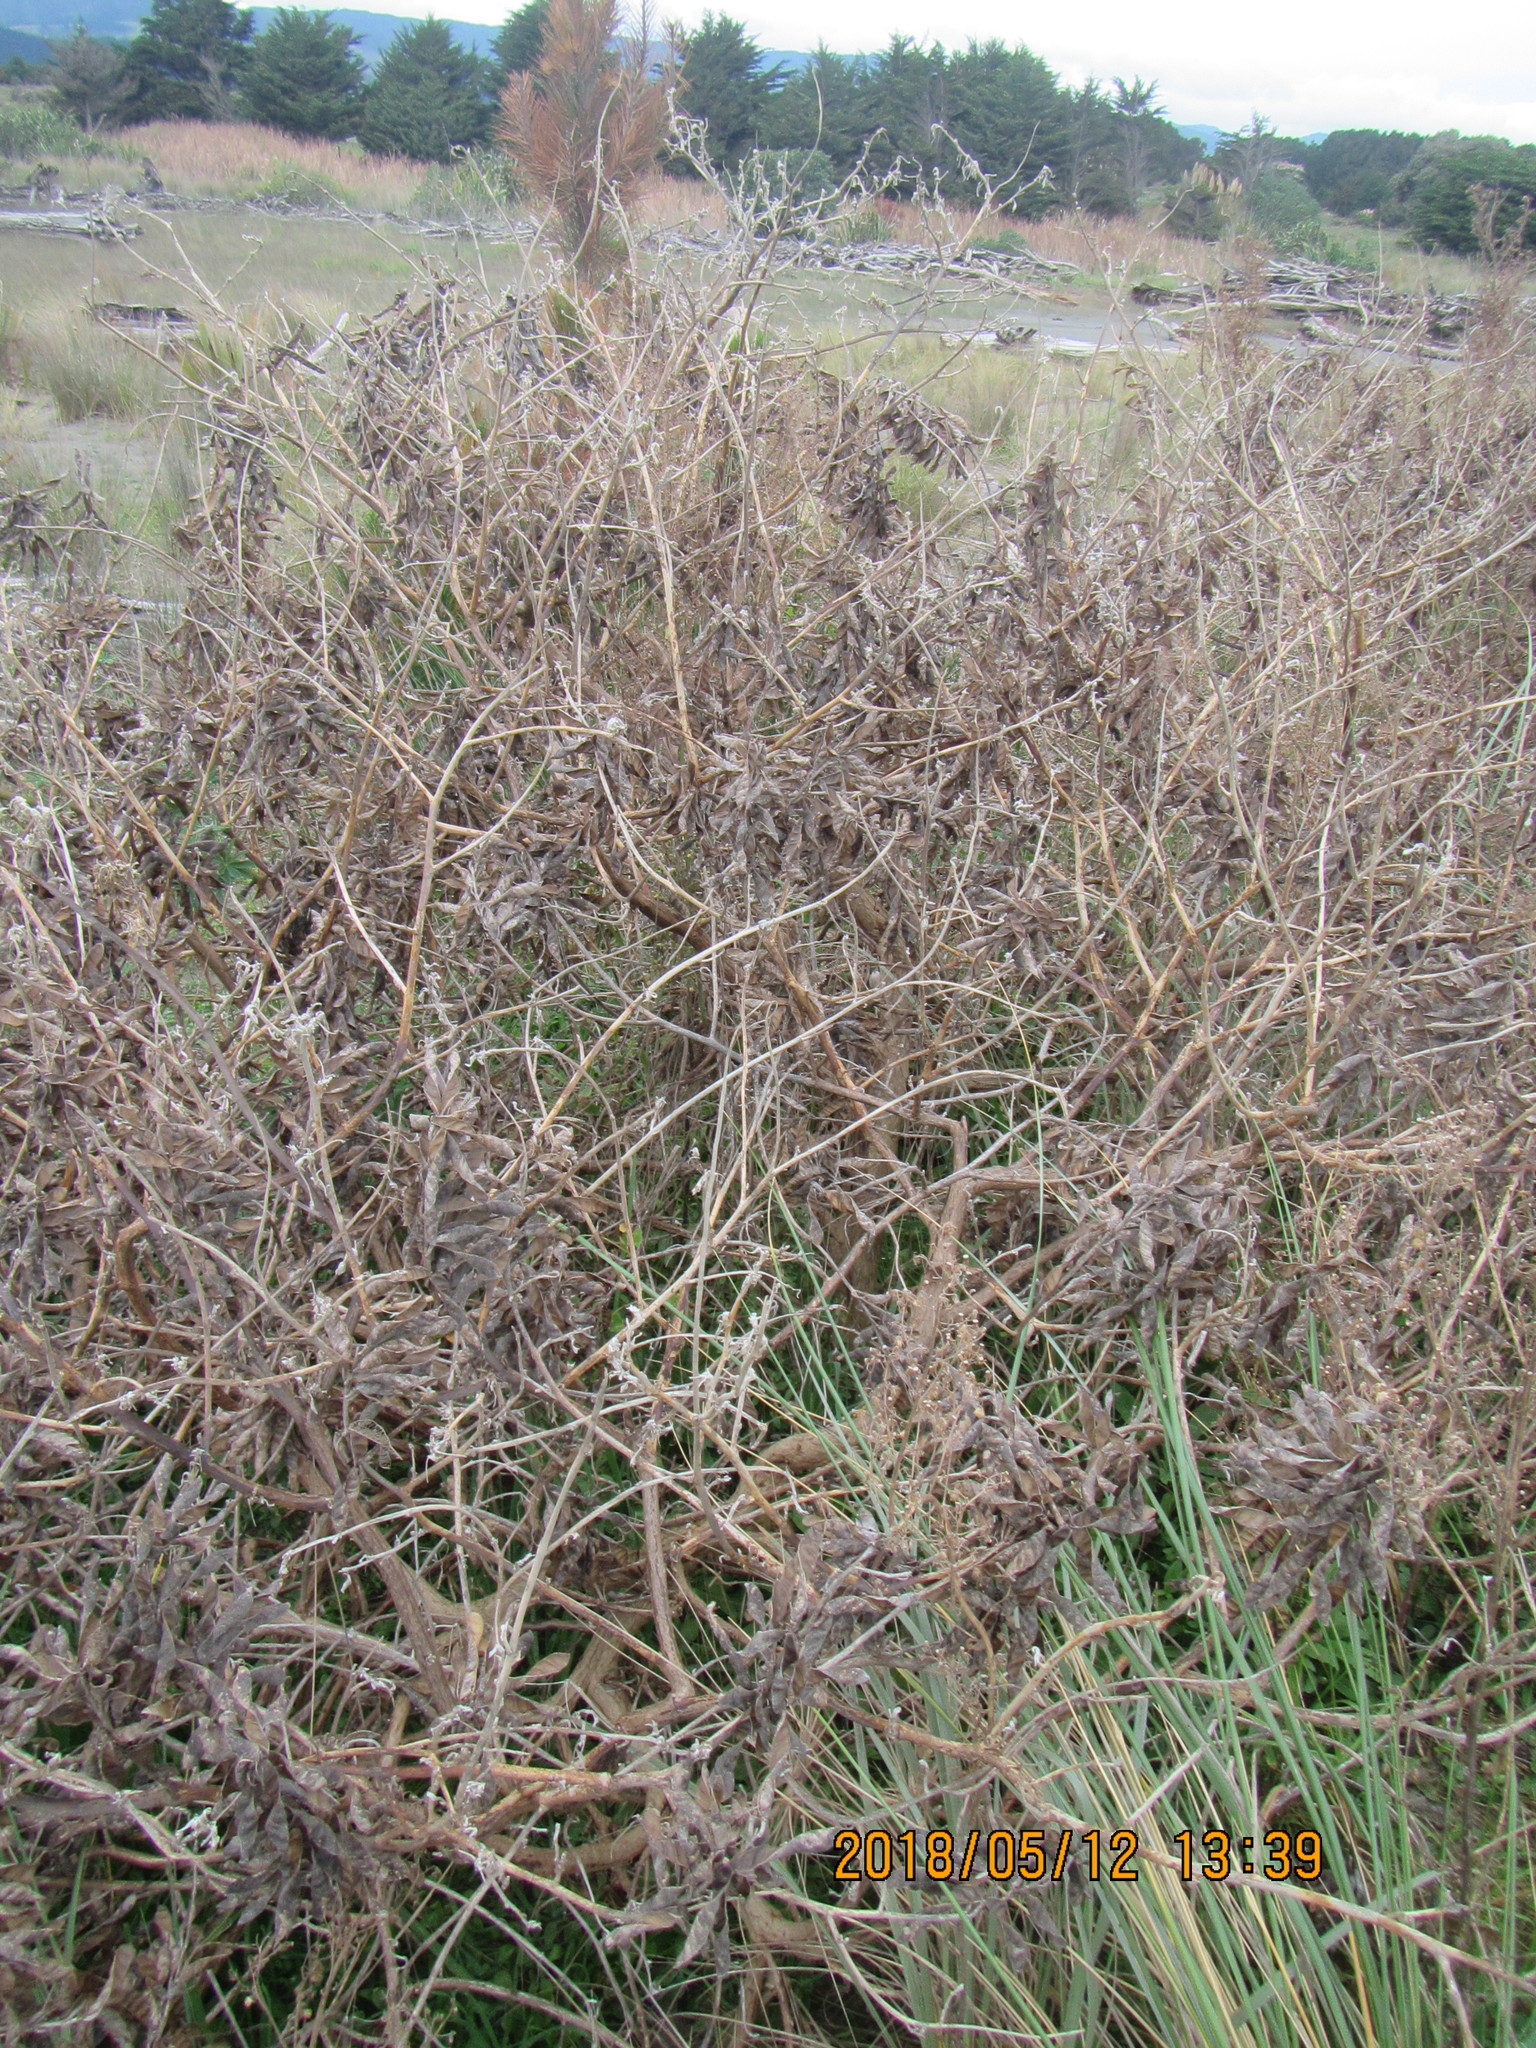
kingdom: Plantae
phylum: Tracheophyta
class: Magnoliopsida
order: Fabales
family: Fabaceae
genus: Lupinus
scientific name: Lupinus arboreus
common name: Yellow bush lupine
